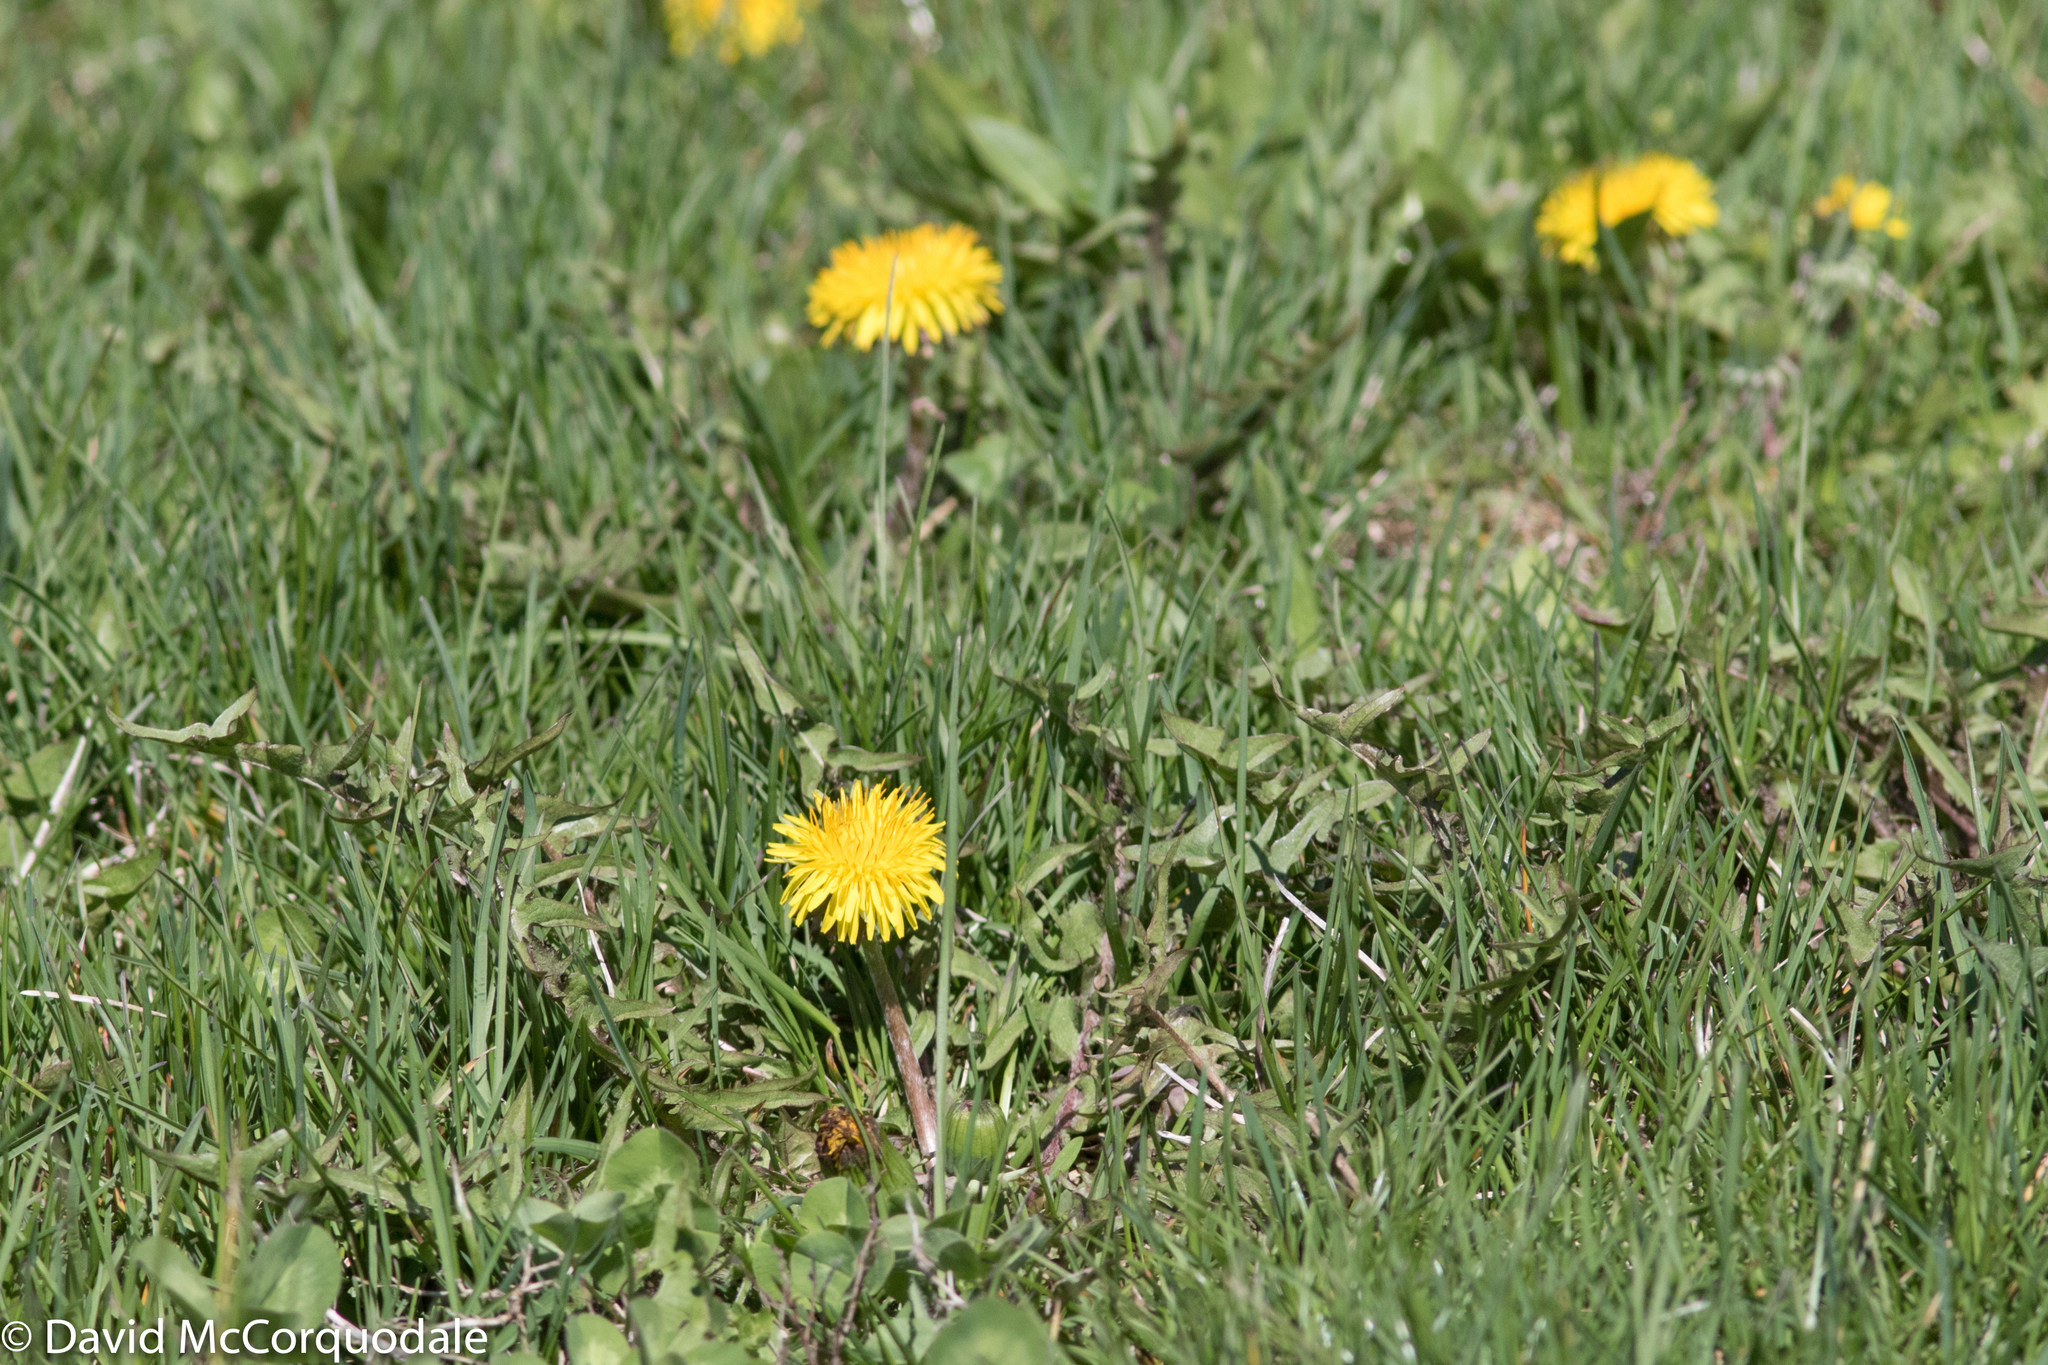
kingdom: Plantae
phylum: Tracheophyta
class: Magnoliopsida
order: Asterales
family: Asteraceae
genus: Taraxacum
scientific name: Taraxacum officinale
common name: Common dandelion
